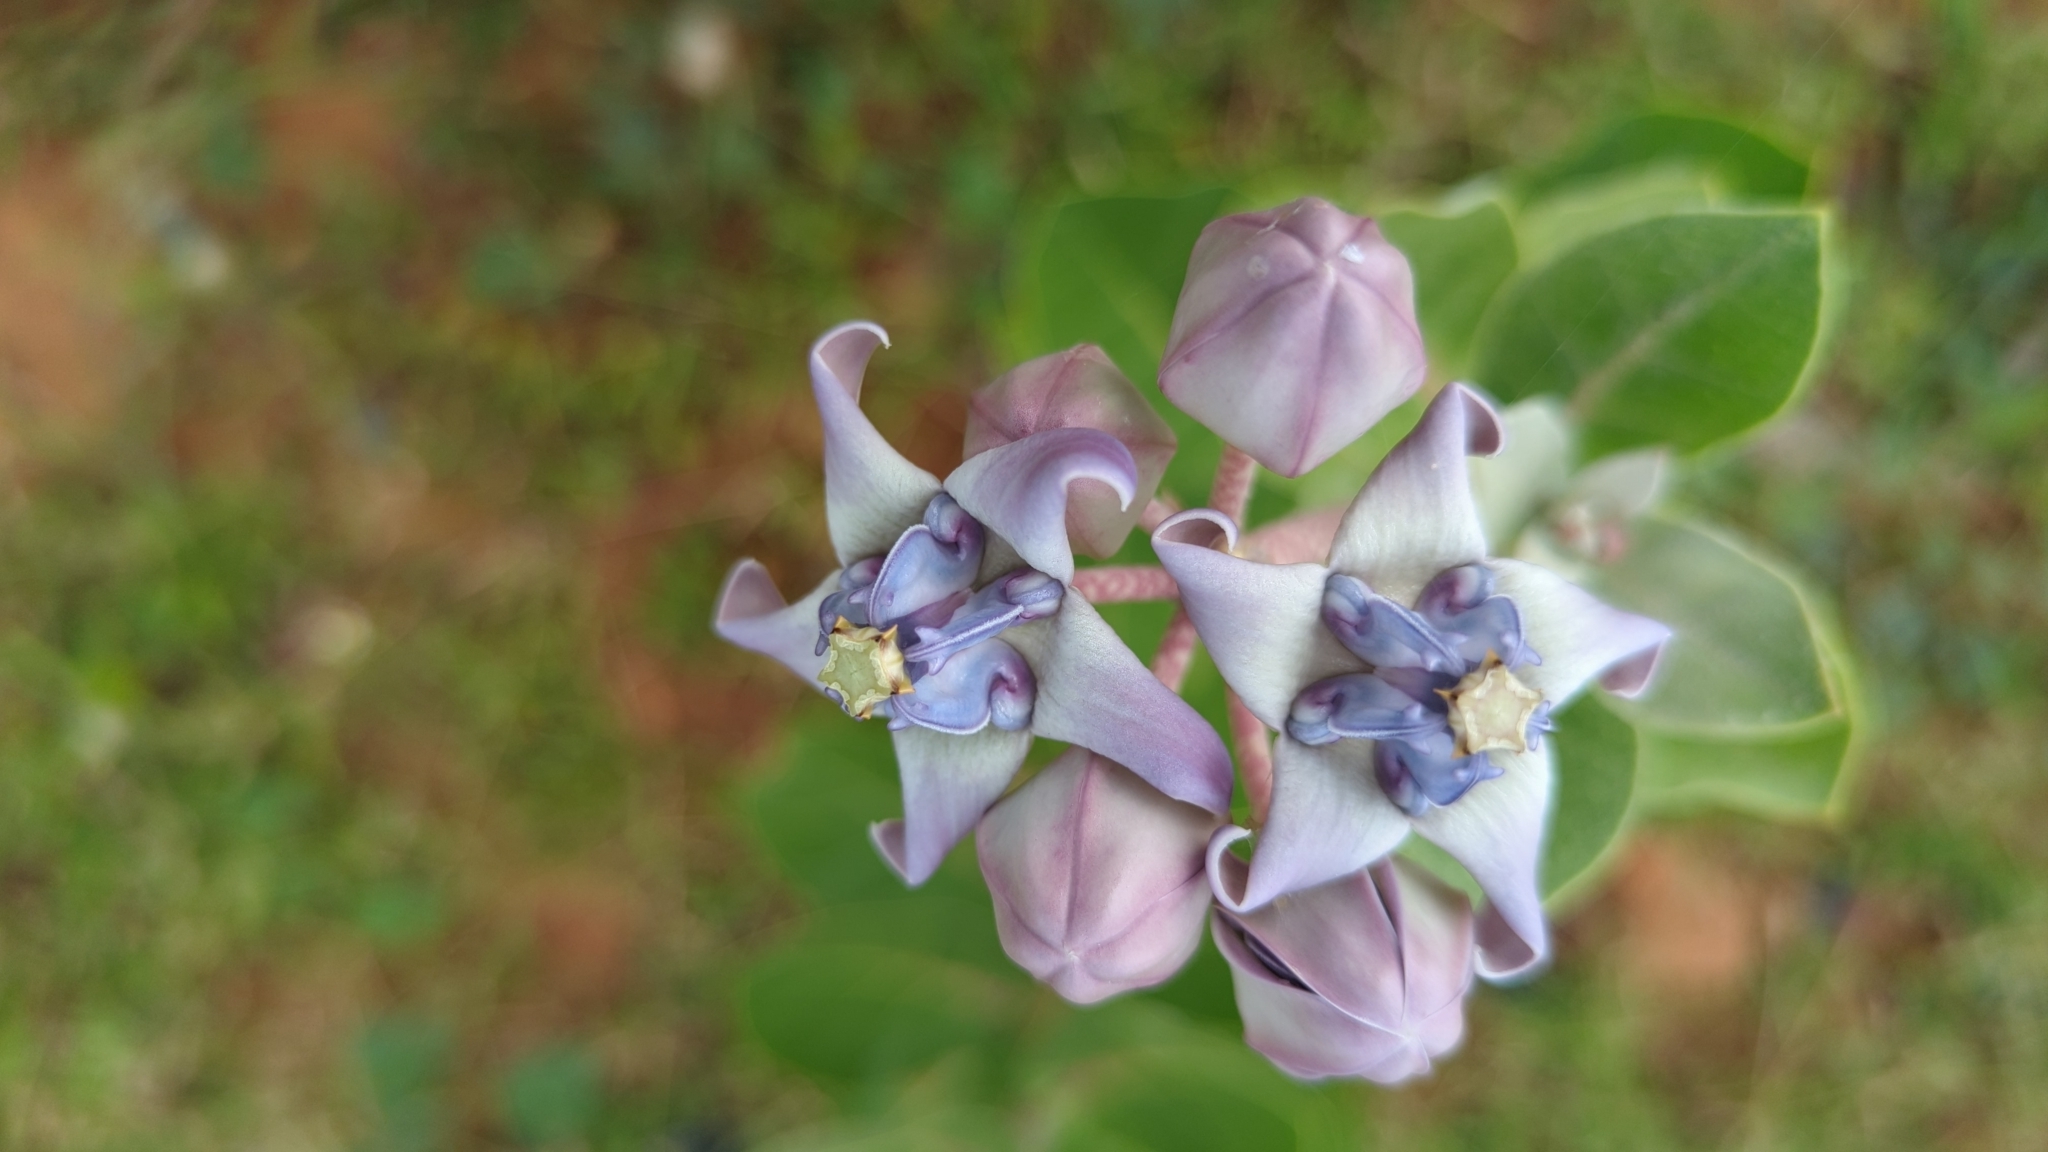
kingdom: Plantae
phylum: Tracheophyta
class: Magnoliopsida
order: Gentianales
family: Apocynaceae
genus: Calotropis
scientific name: Calotropis gigantea
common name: Crown flower
